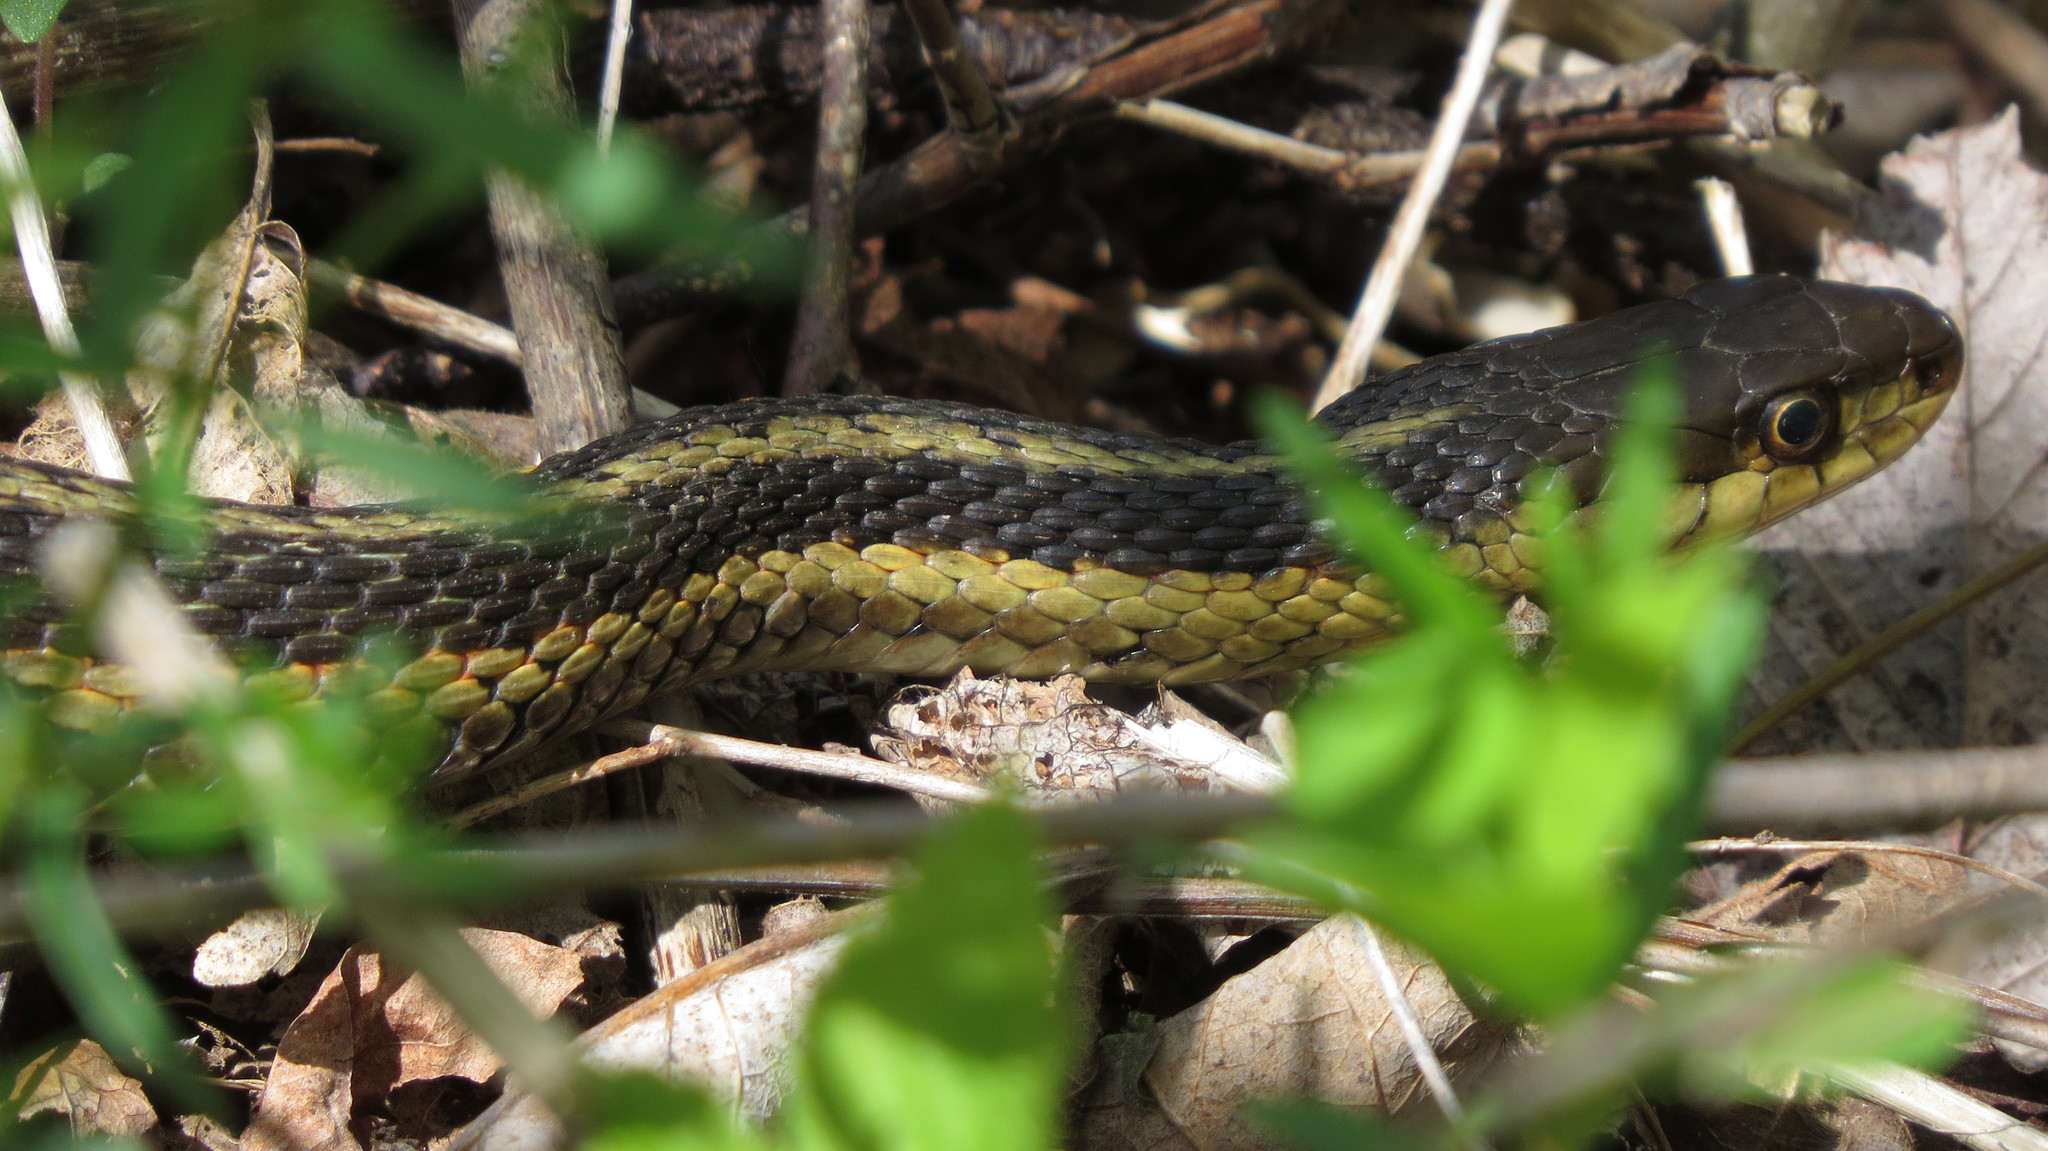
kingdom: Animalia
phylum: Chordata
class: Squamata
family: Colubridae
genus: Thamnophis
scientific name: Thamnophis sirtalis
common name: Common garter snake
